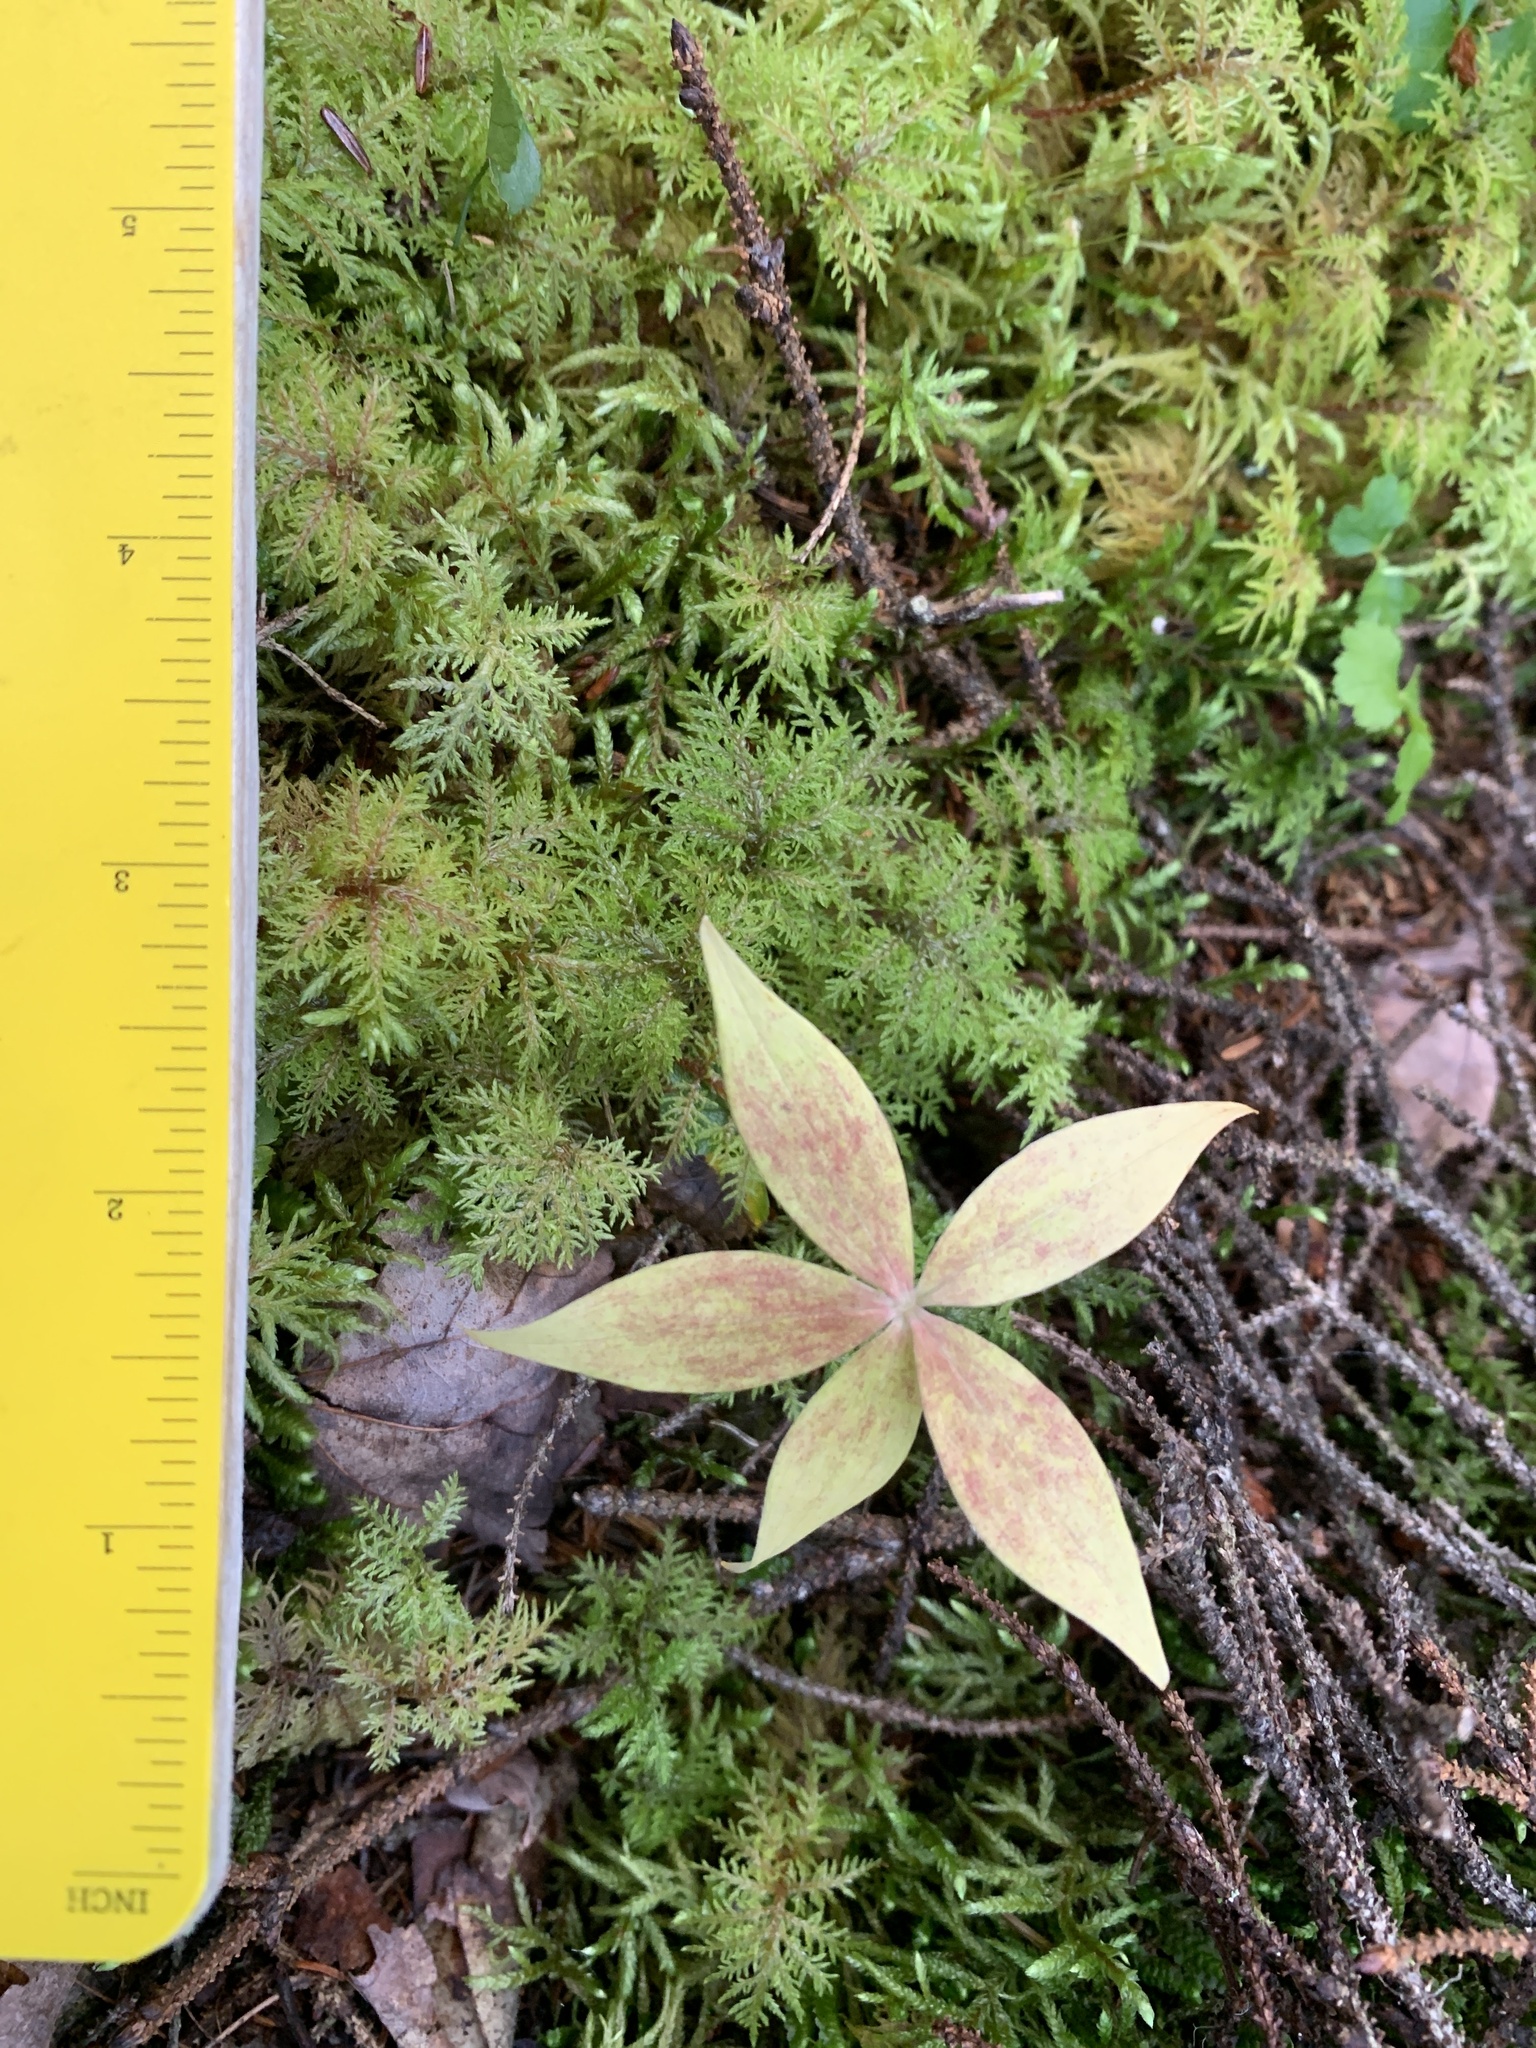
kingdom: Plantae
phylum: Tracheophyta
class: Liliopsida
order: Liliales
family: Liliaceae
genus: Medeola
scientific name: Medeola virginiana
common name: Indian cucumber-root
